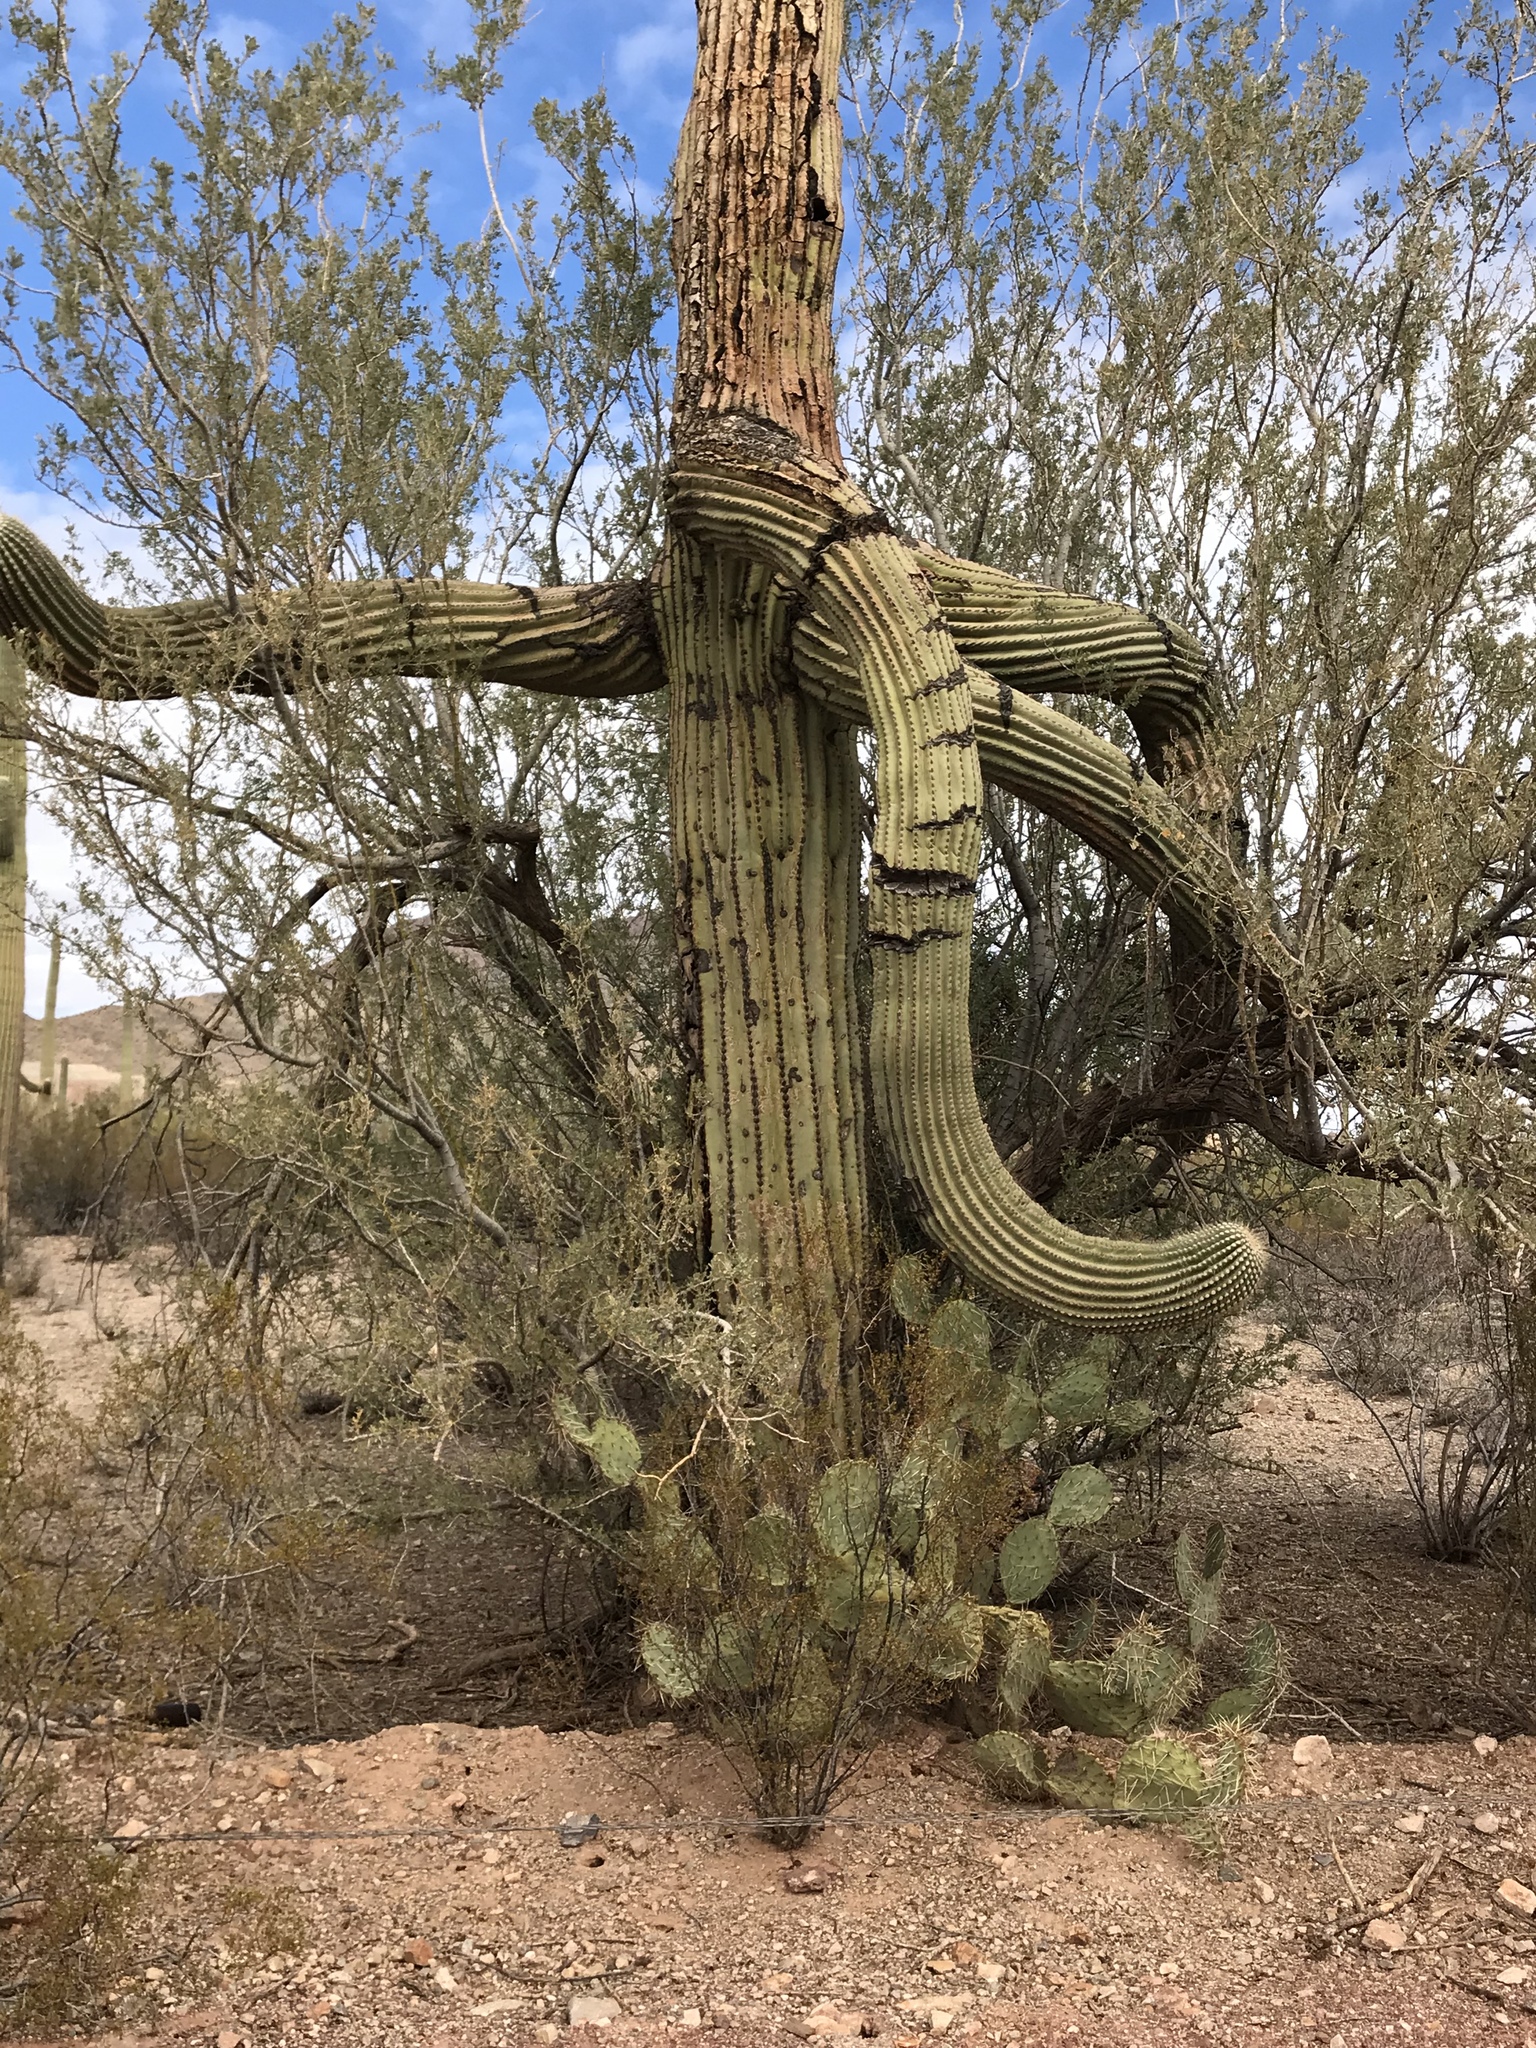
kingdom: Plantae
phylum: Tracheophyta
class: Magnoliopsida
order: Caryophyllales
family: Cactaceae
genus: Carnegiea
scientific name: Carnegiea gigantea
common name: Saguaro
